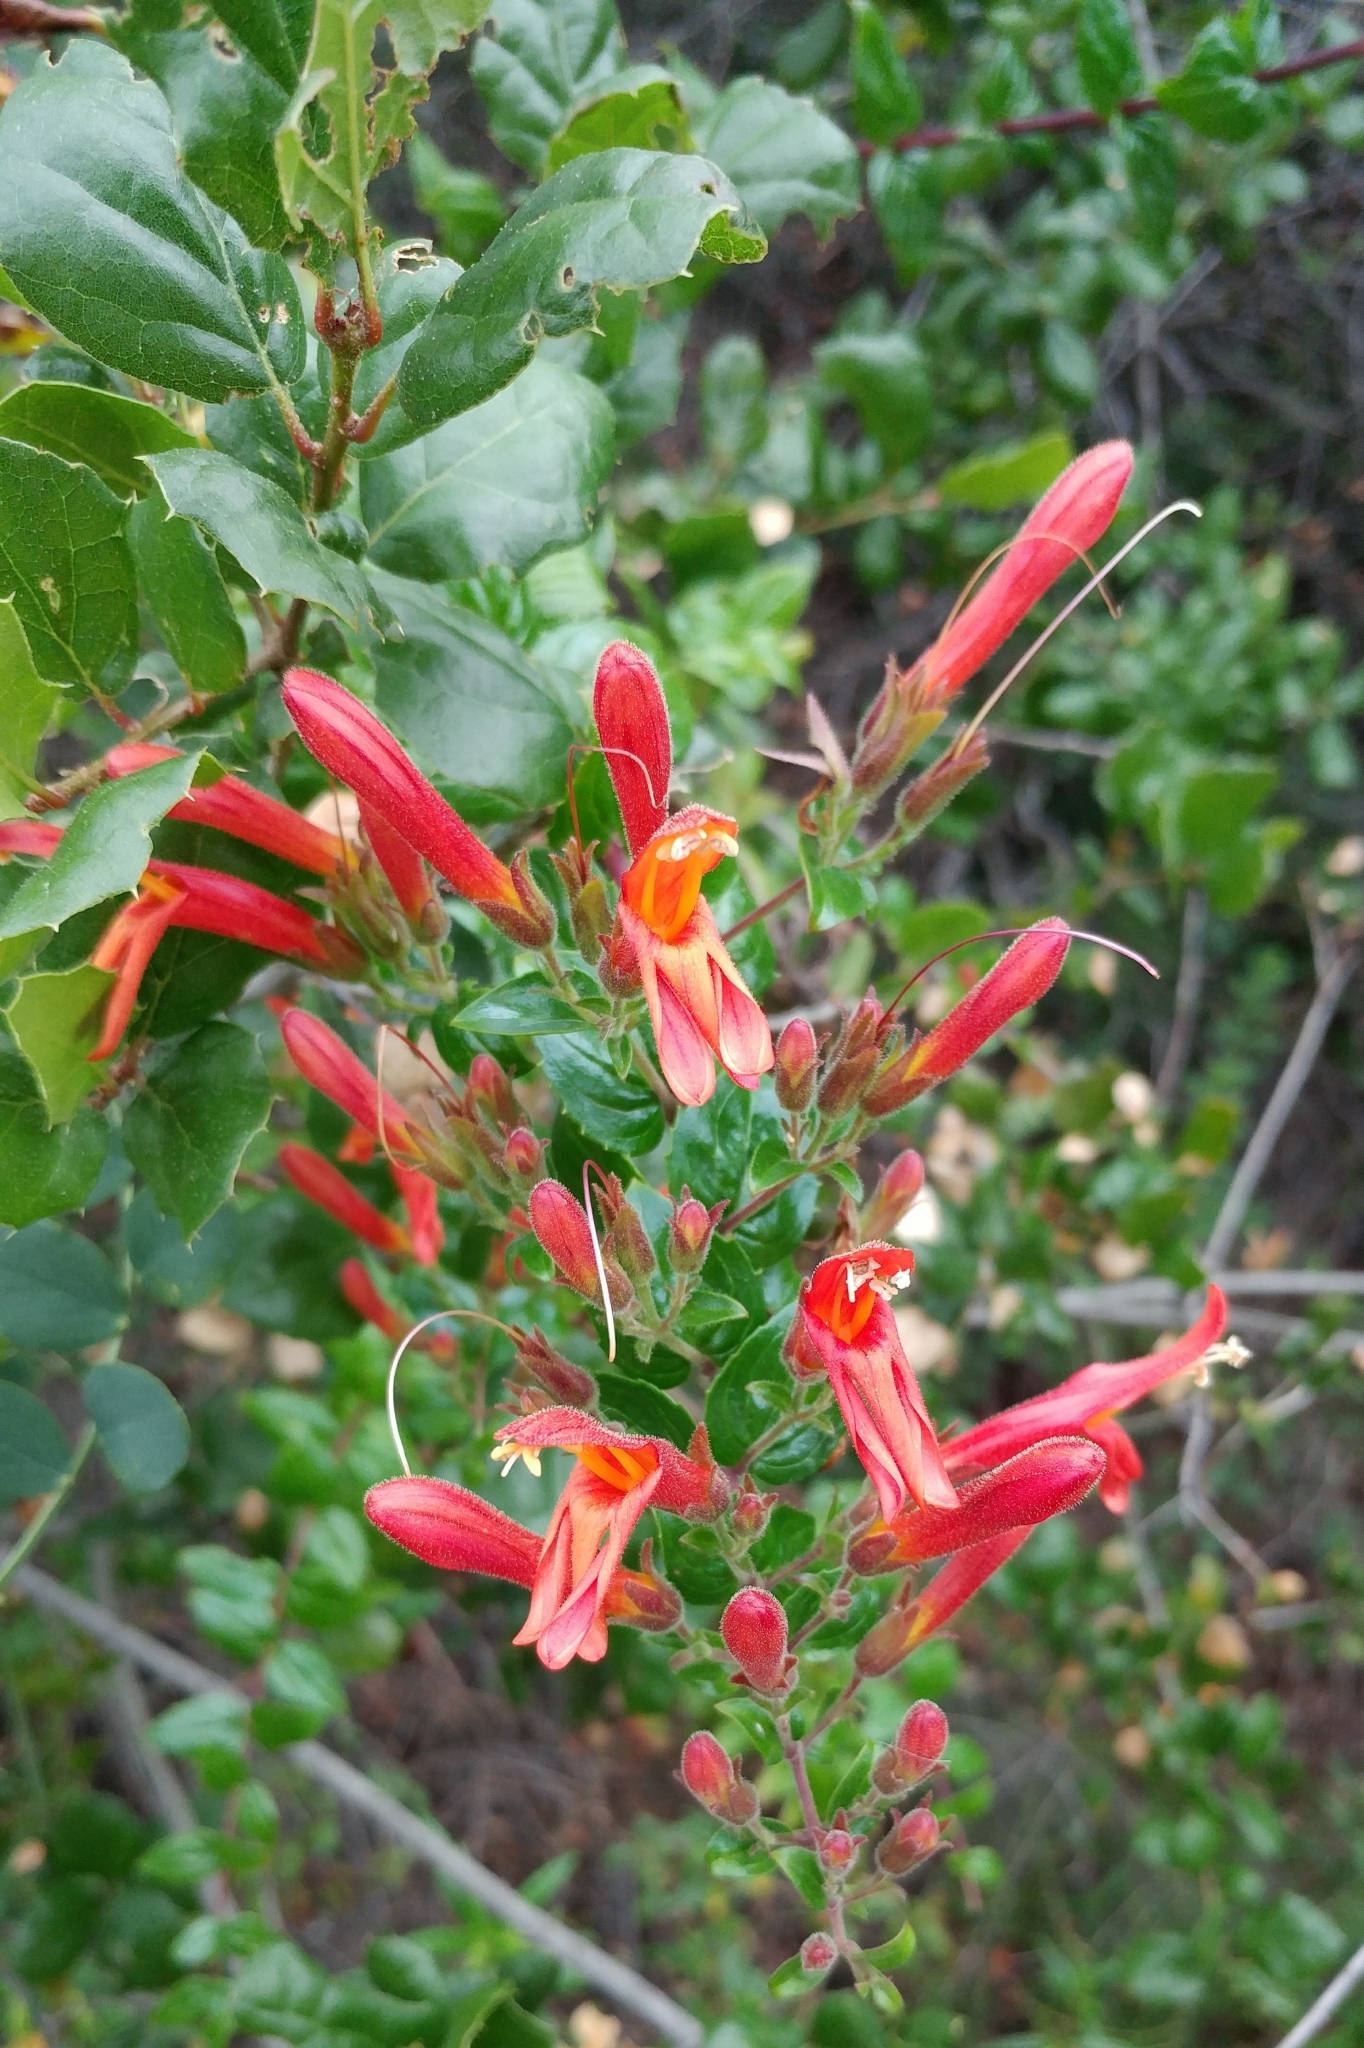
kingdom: Plantae
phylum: Tracheophyta
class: Magnoliopsida
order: Lamiales
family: Plantaginaceae
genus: Keckiella
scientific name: Keckiella cordifolia
